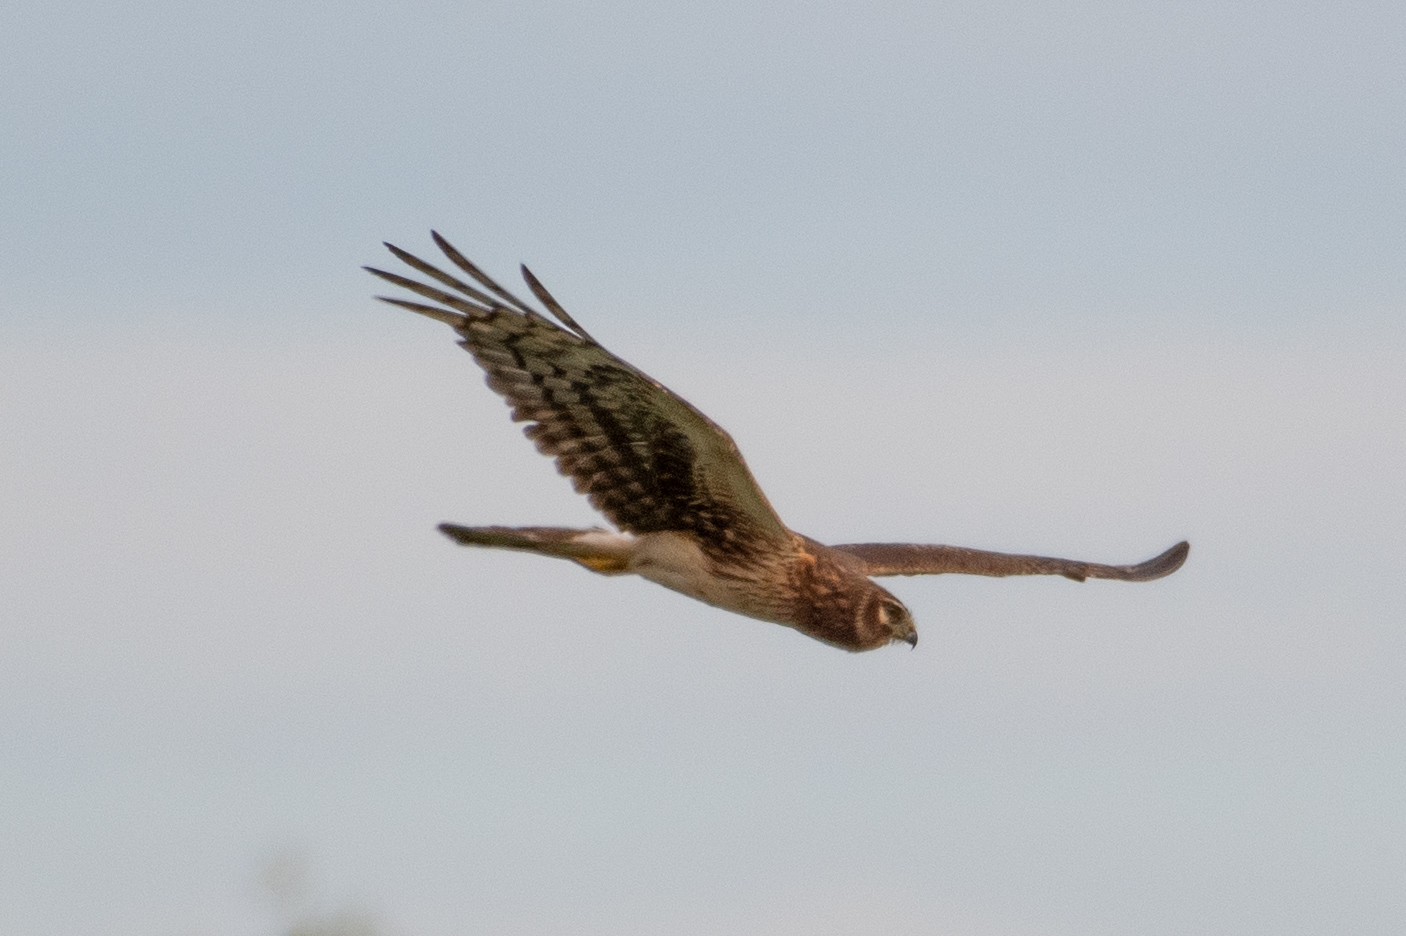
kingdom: Animalia
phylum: Chordata
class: Aves
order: Accipitriformes
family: Accipitridae
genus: Circus
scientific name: Circus cyaneus
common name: Hen harrier
